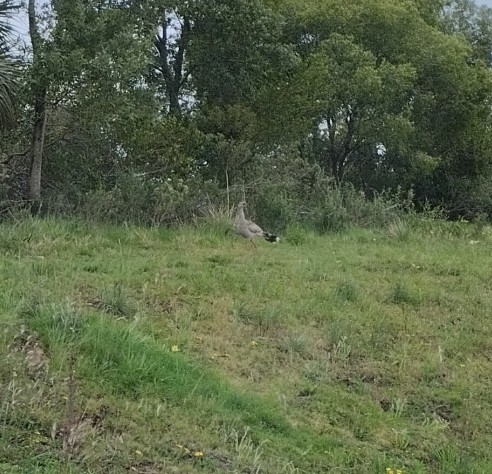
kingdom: Animalia
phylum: Chordata
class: Aves
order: Cariamiformes
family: Cariamidae
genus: Cariama
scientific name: Cariama cristata
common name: Red-legged seriema
